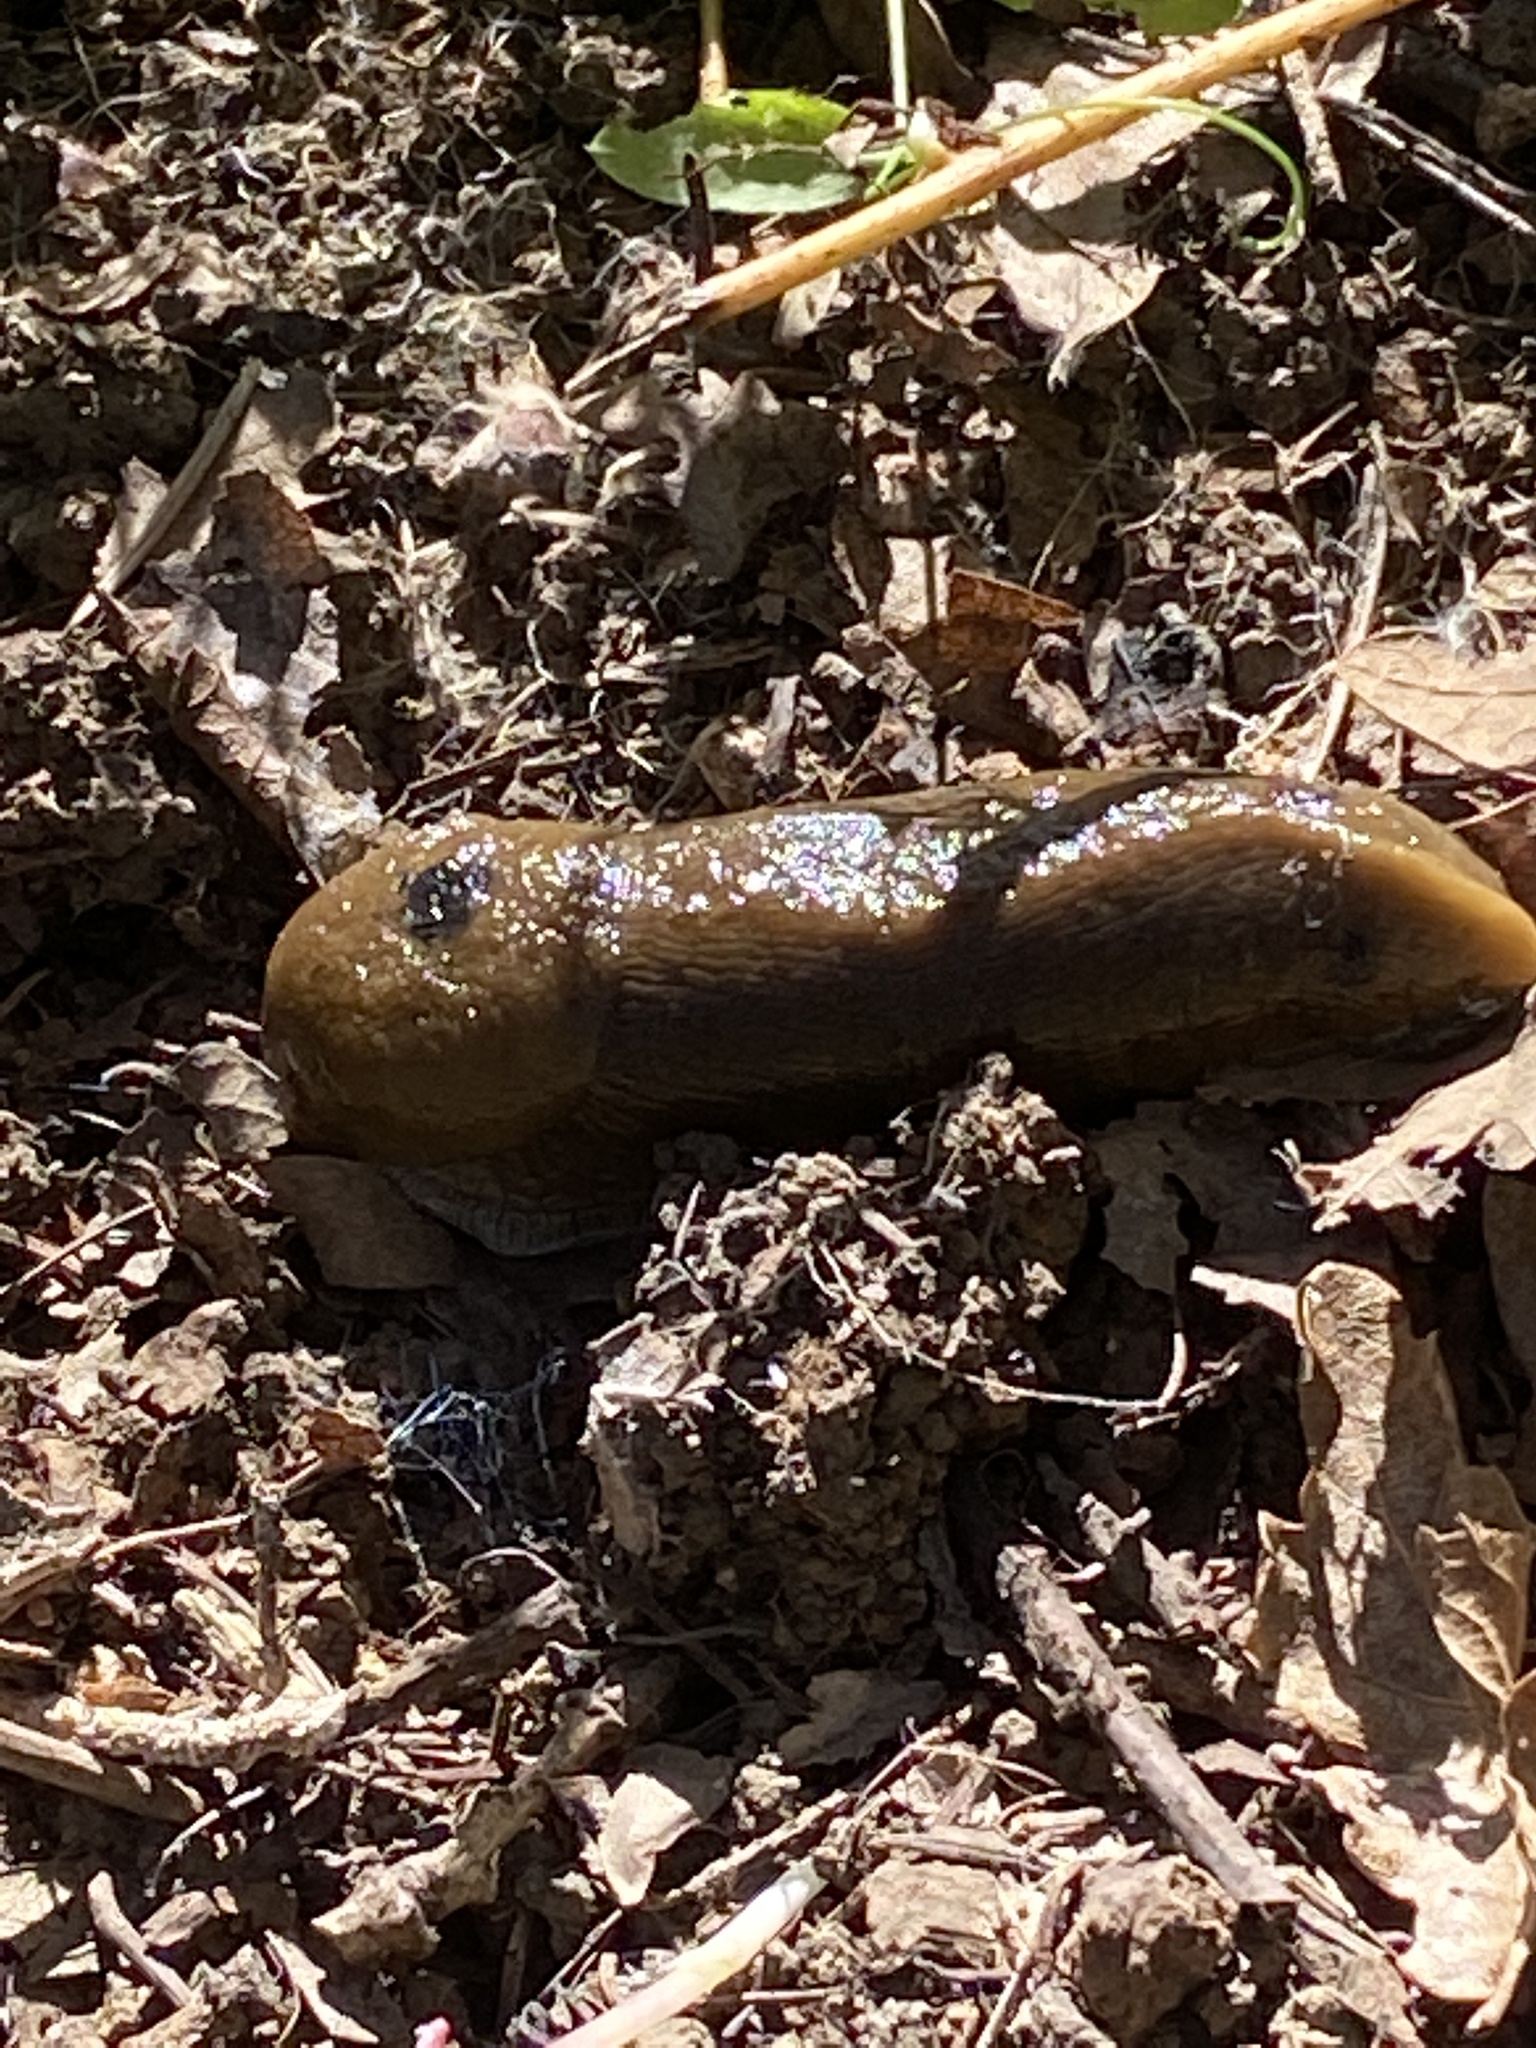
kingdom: Animalia
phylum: Mollusca
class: Gastropoda
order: Stylommatophora
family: Ariolimacidae
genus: Ariolimax
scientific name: Ariolimax buttoni
